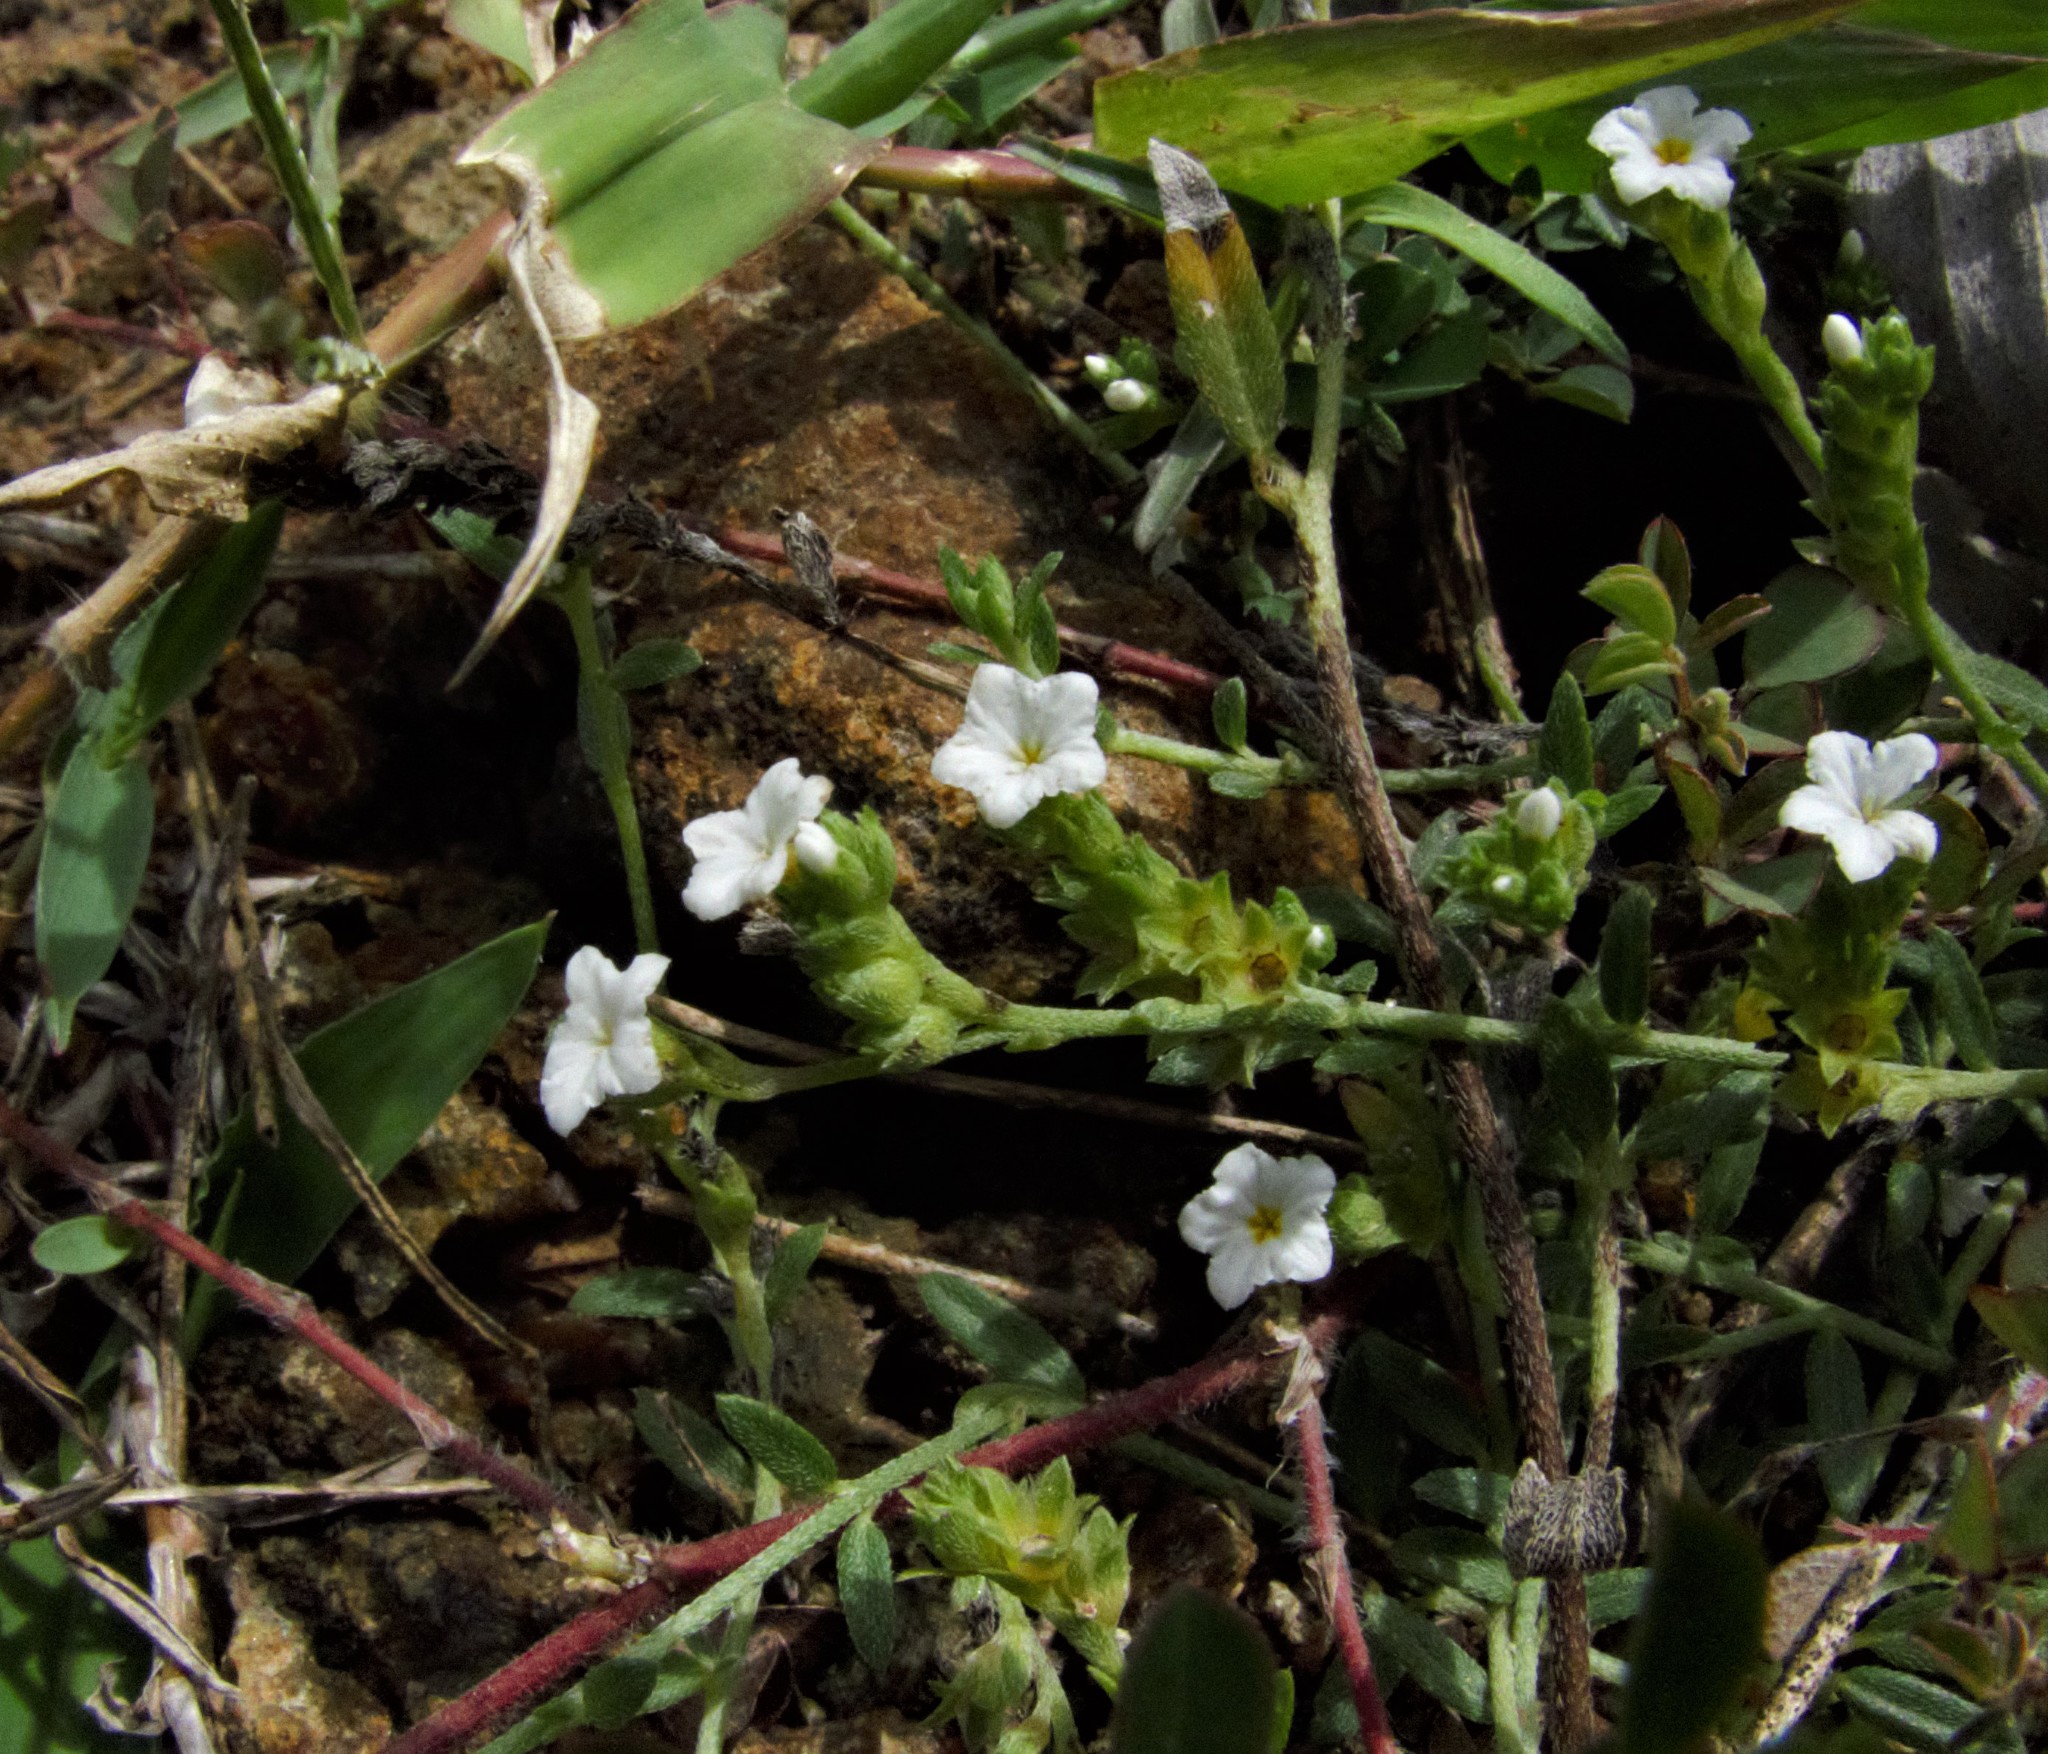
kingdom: Plantae
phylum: Tracheophyta
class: Magnoliopsida
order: Boraginales
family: Heliotropiaceae
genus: Euploca
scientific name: Euploca strigosa
